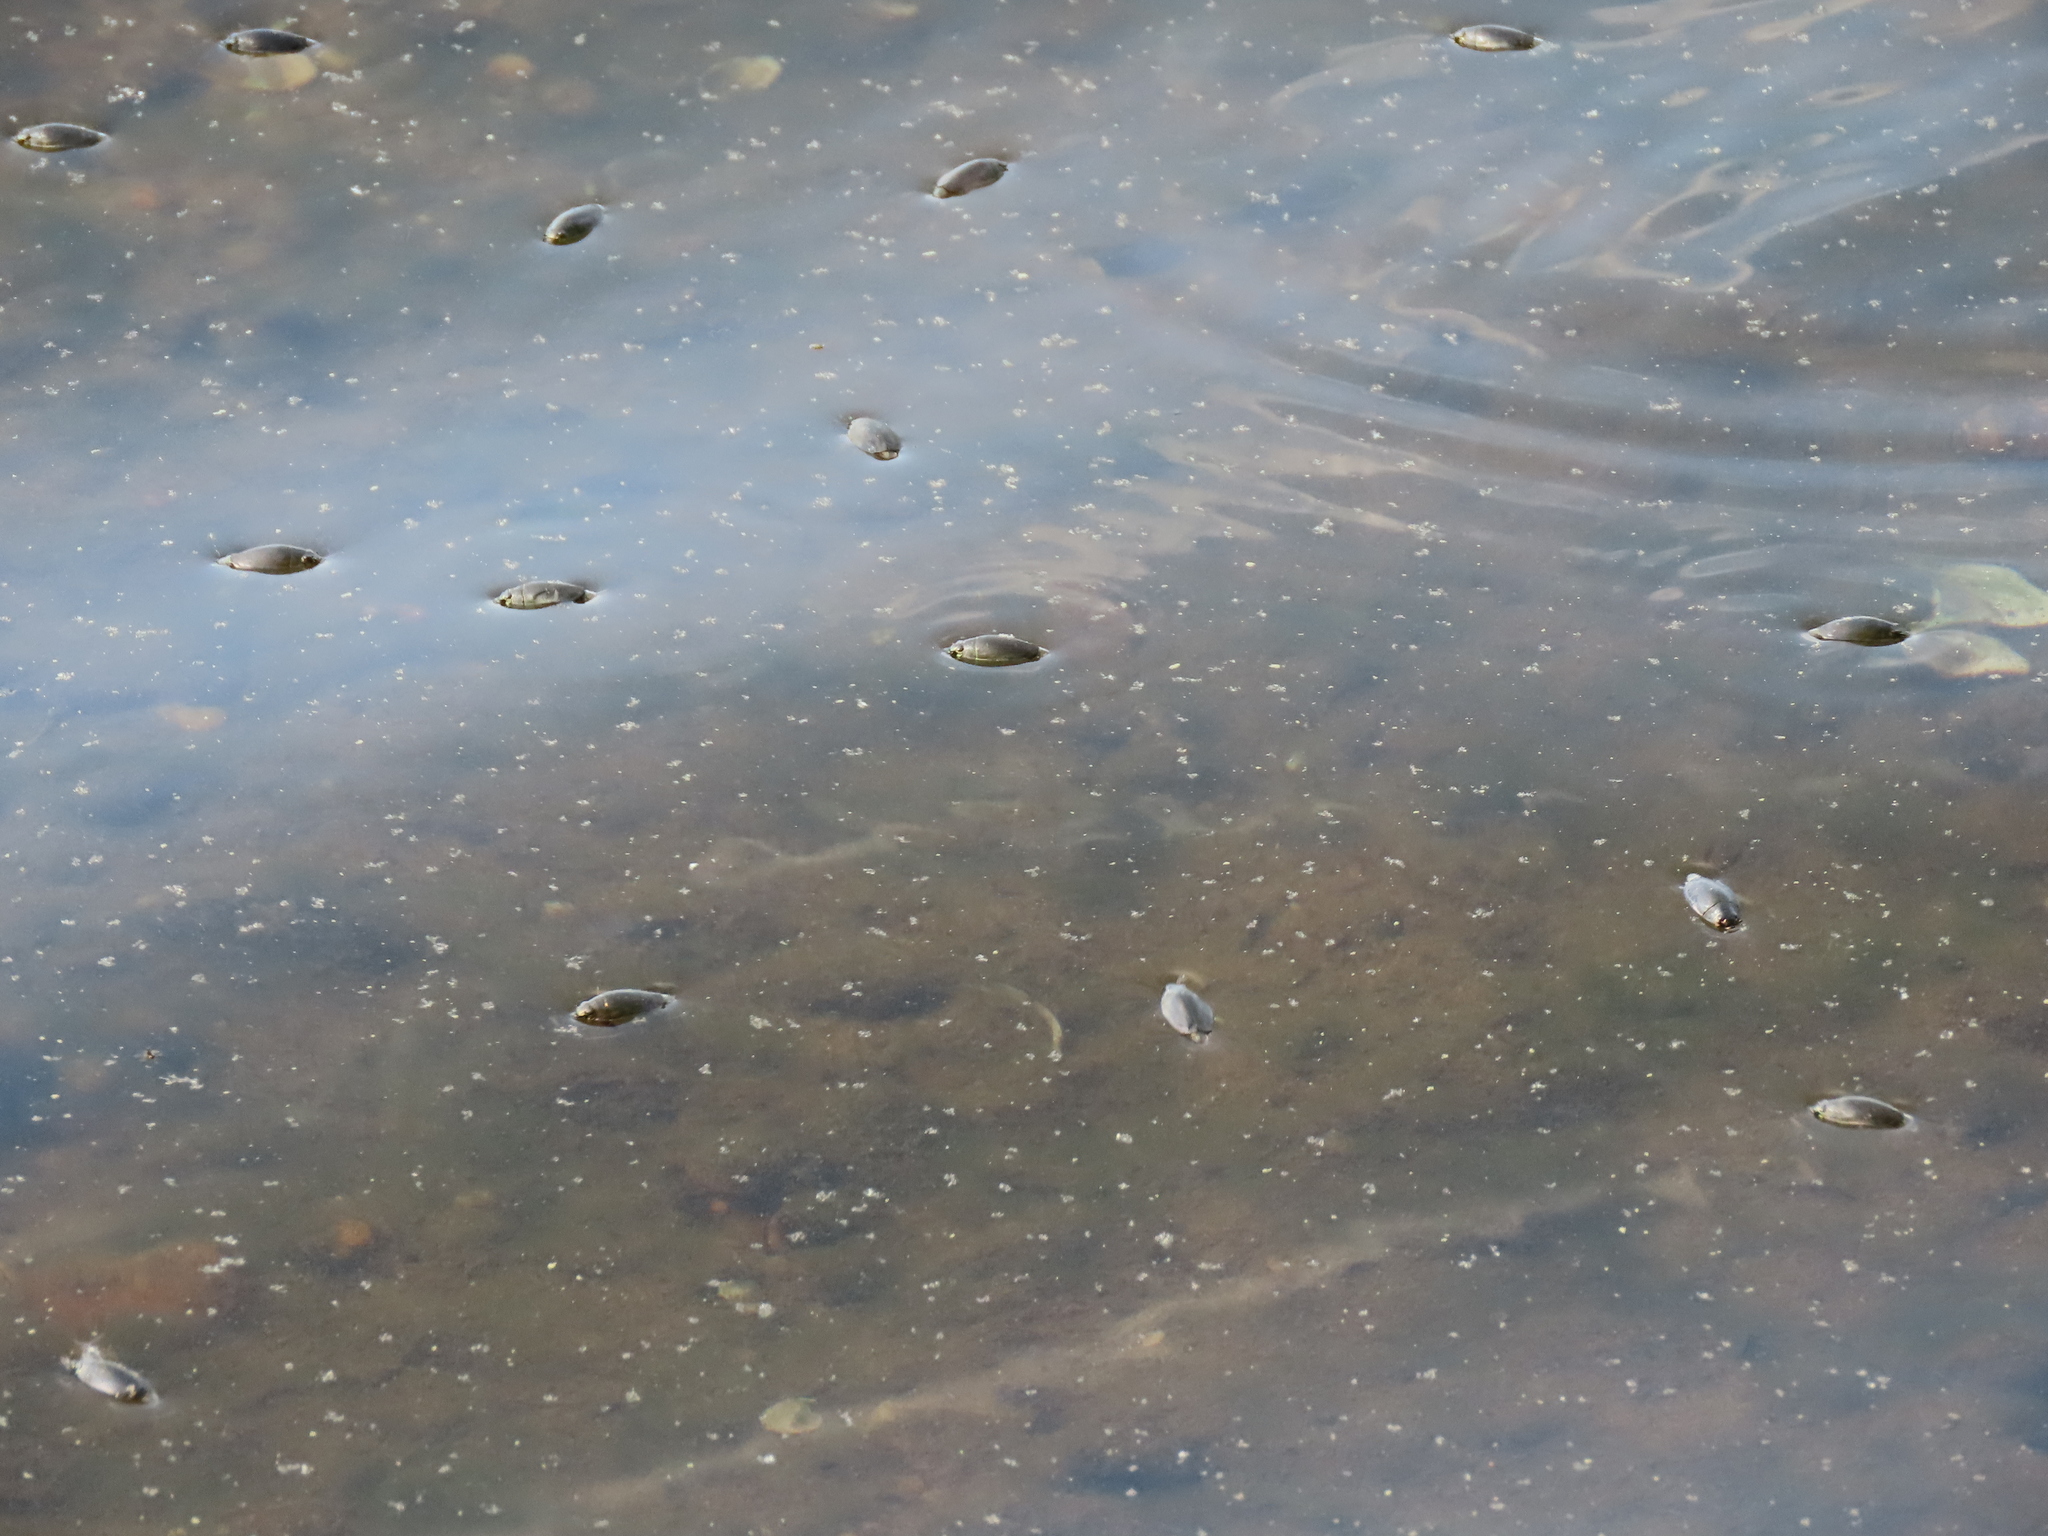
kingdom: Animalia
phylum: Arthropoda
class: Insecta
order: Coleoptera
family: Gyrinidae
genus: Dineutus
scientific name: Dineutus
